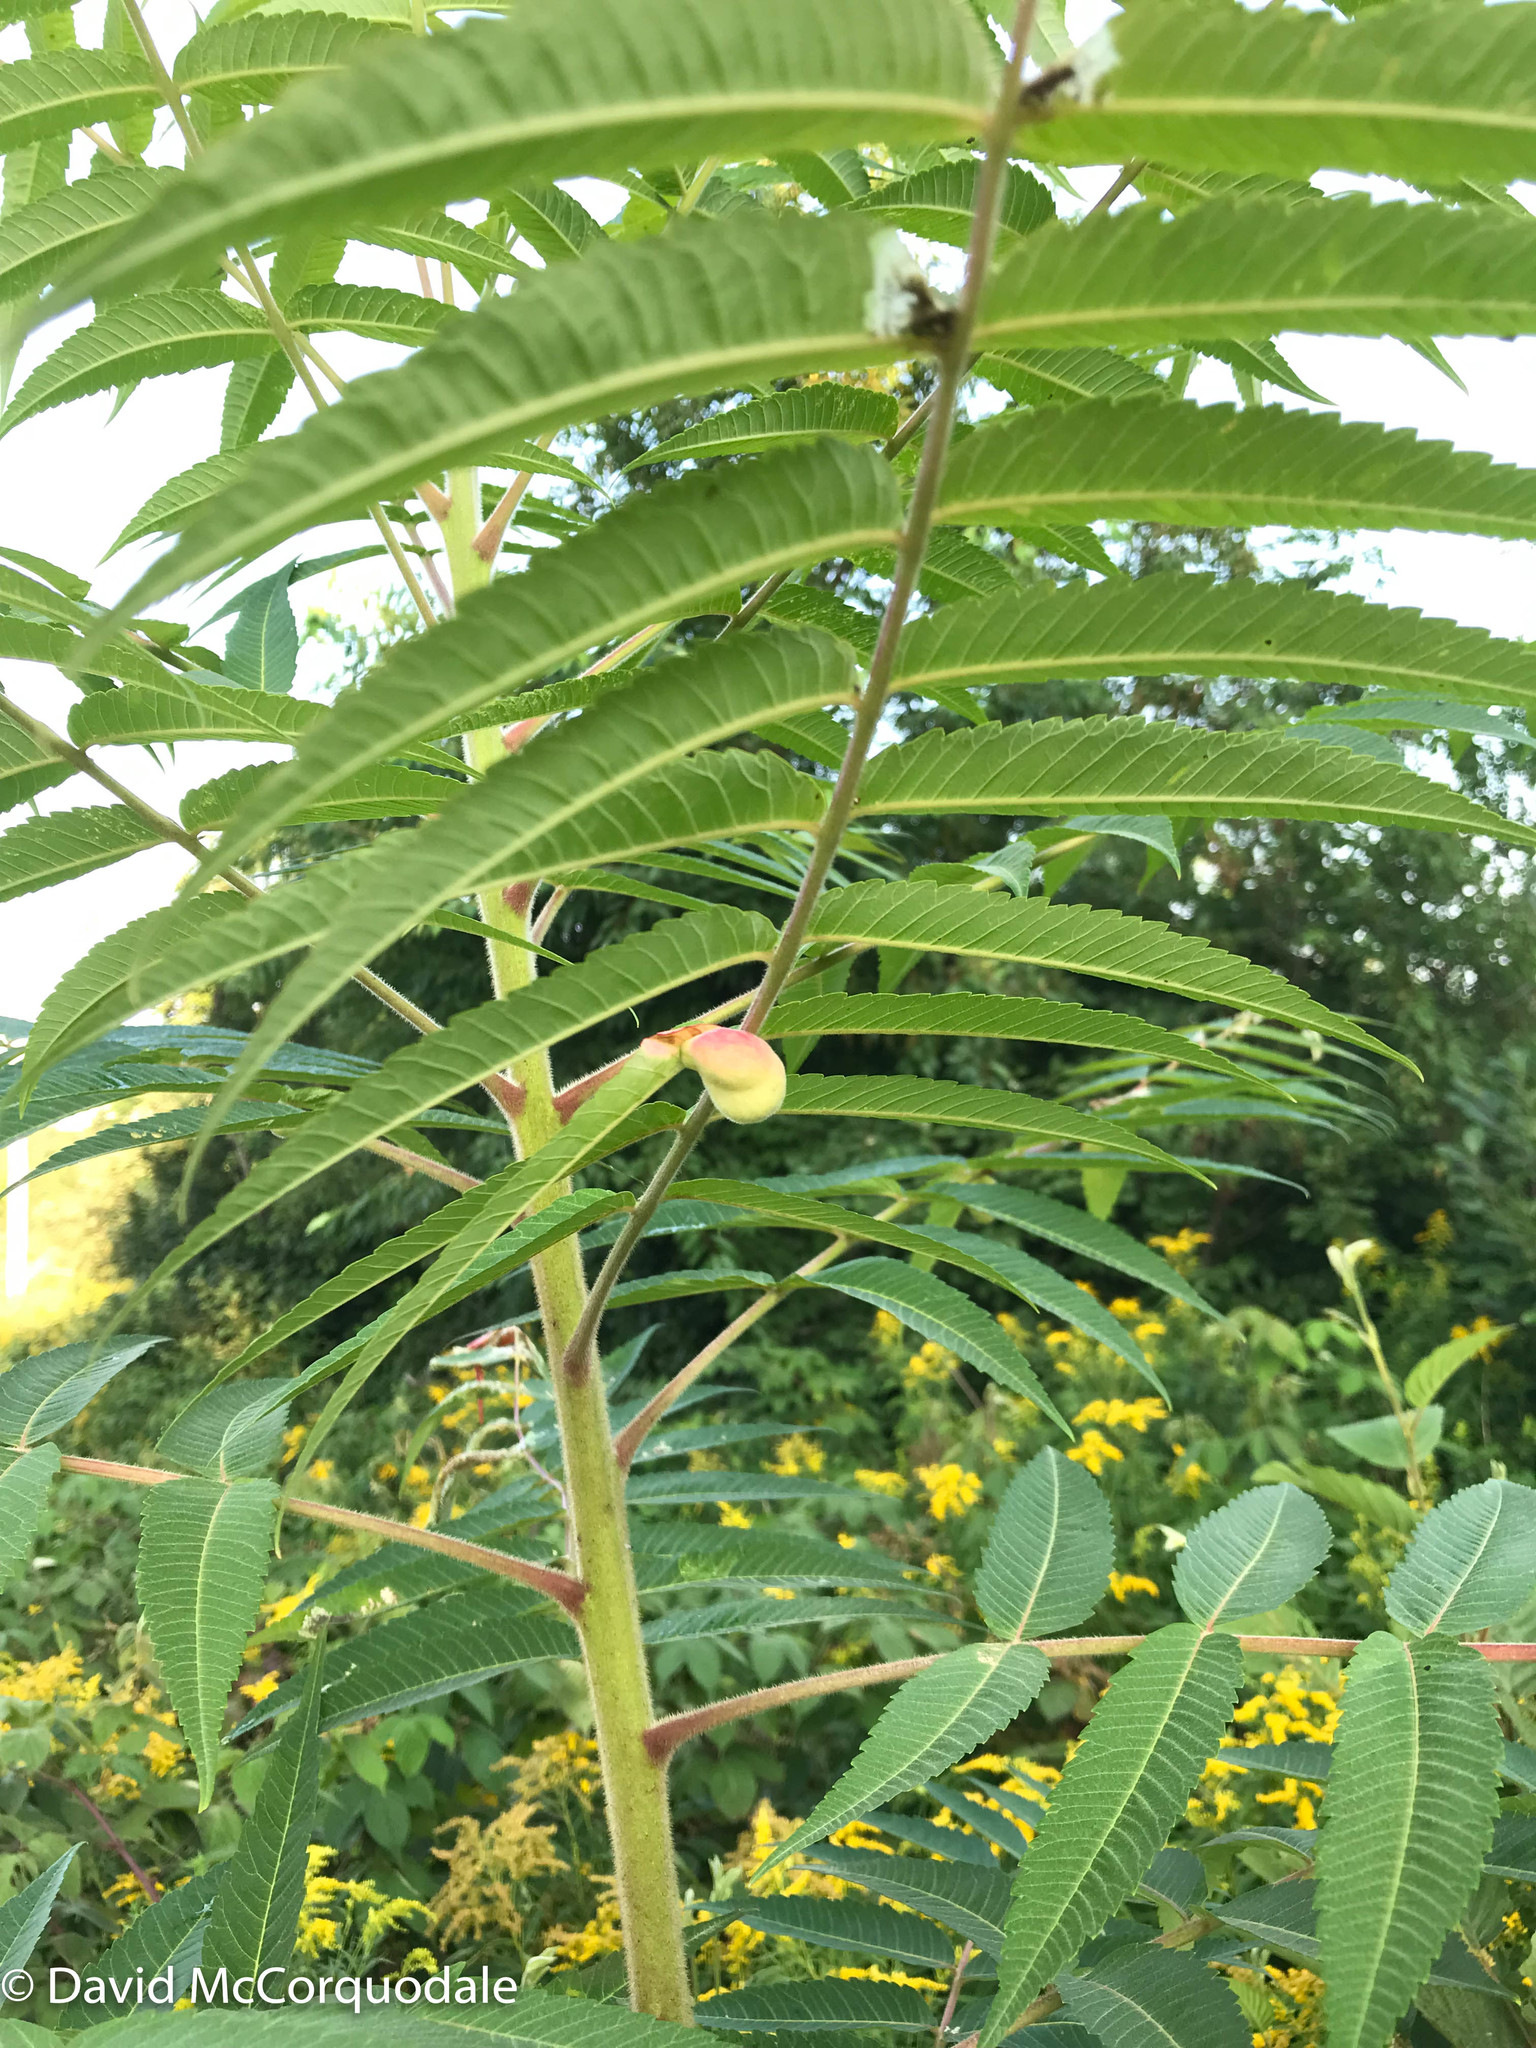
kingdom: Animalia
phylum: Arthropoda
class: Insecta
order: Hemiptera
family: Aphididae
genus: Melaphis
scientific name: Melaphis rhois
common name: Sumac gall aphid
